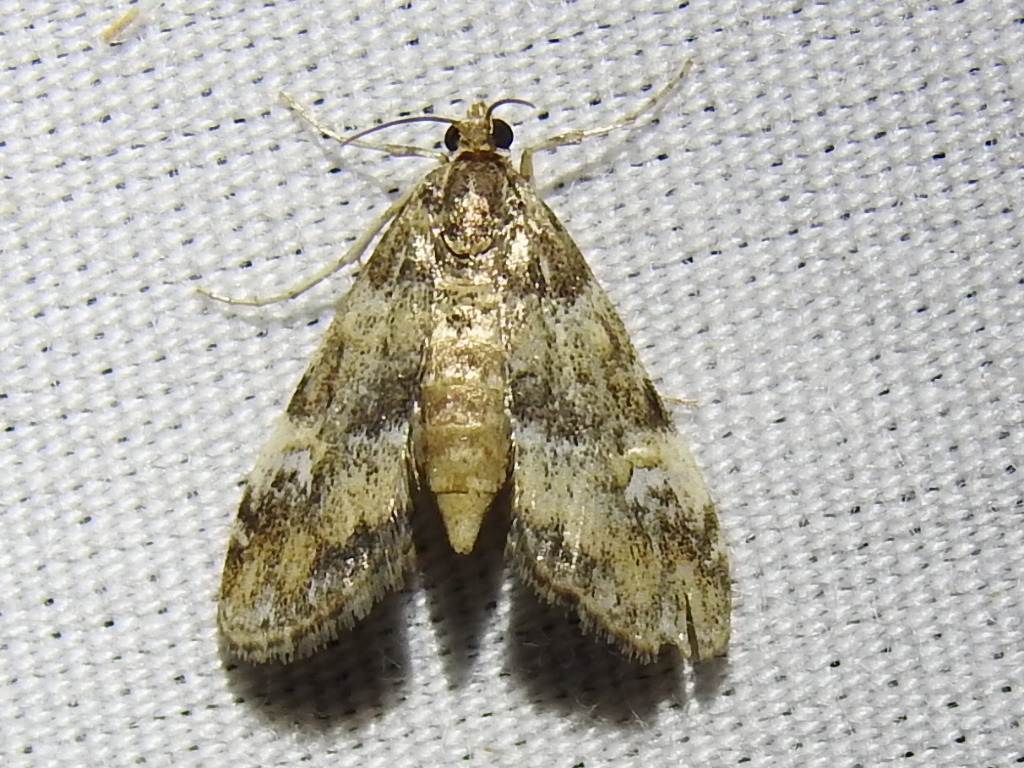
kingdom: Animalia
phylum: Arthropoda
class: Insecta
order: Lepidoptera
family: Crambidae
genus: Elophila
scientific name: Elophila obliteralis
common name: Waterlily leafcutter moth
